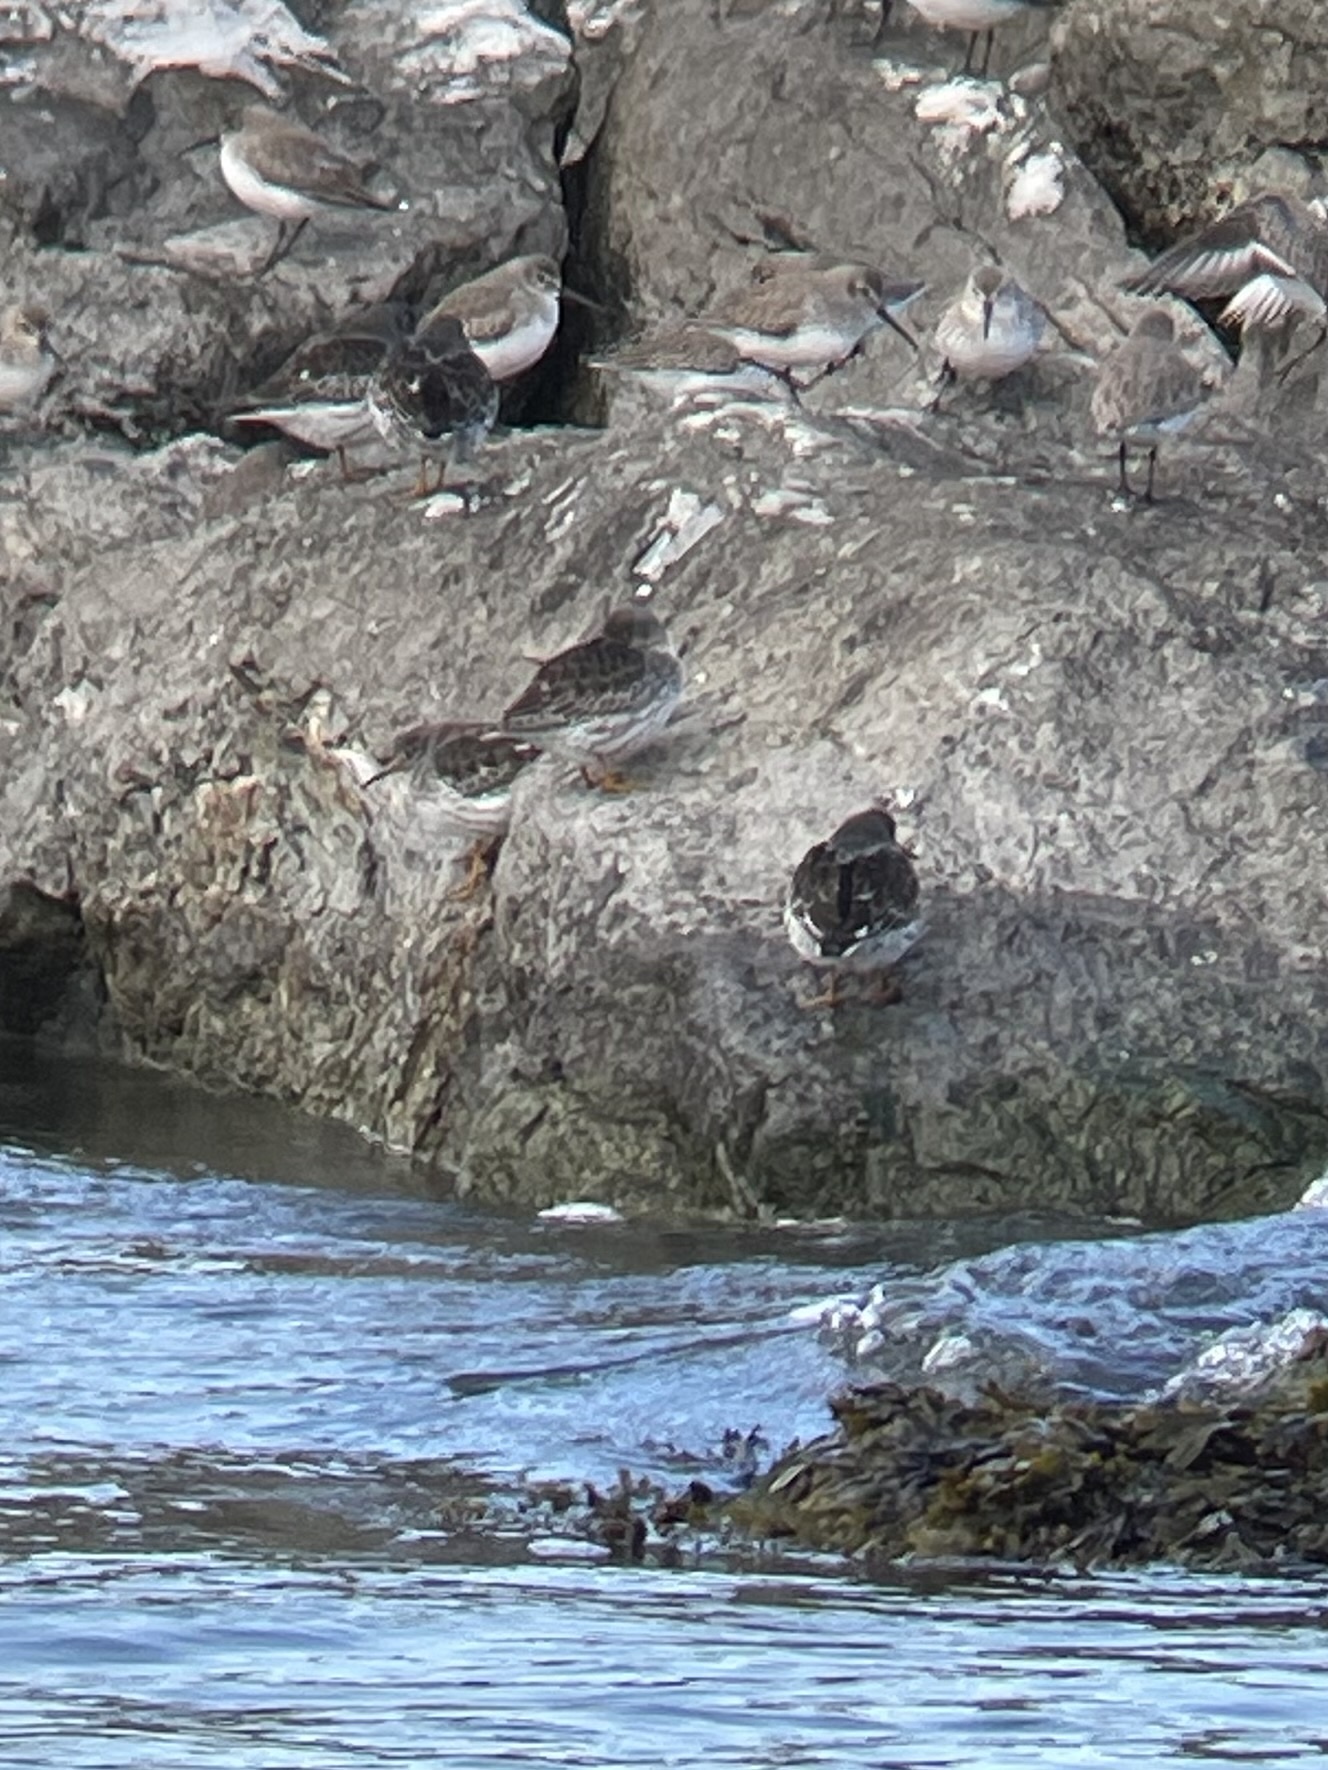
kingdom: Animalia
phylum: Chordata
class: Aves
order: Charadriiformes
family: Scolopacidae
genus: Calidris
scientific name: Calidris maritima
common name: Purple sandpiper
